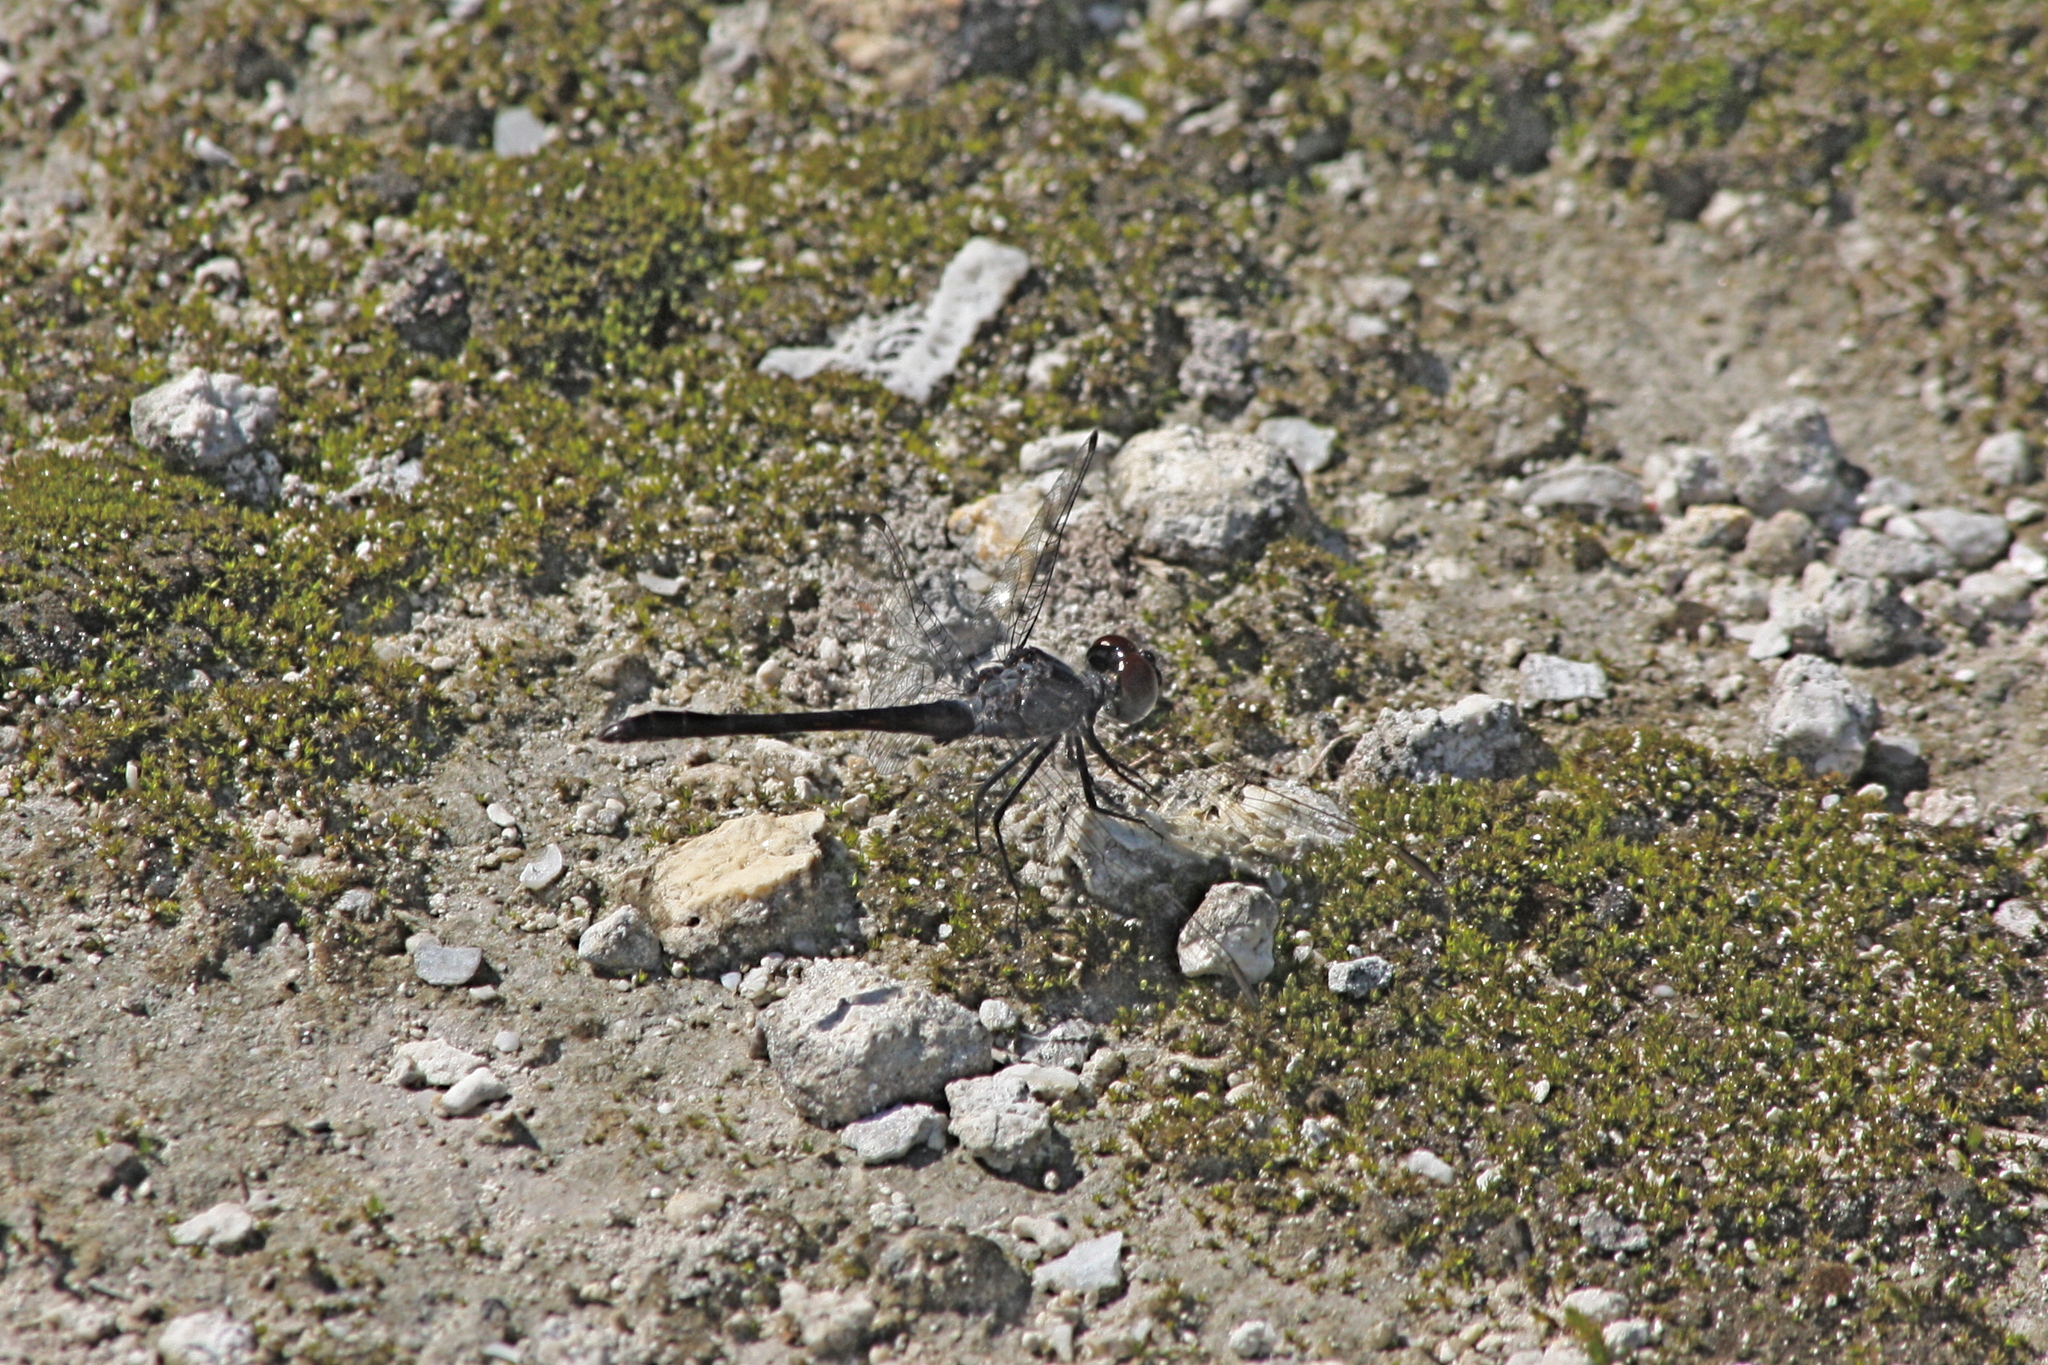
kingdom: Animalia
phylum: Arthropoda
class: Insecta
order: Odonata
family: Libellulidae
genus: Erythrodiplax
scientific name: Erythrodiplax berenice
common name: Seaside dragonlet
